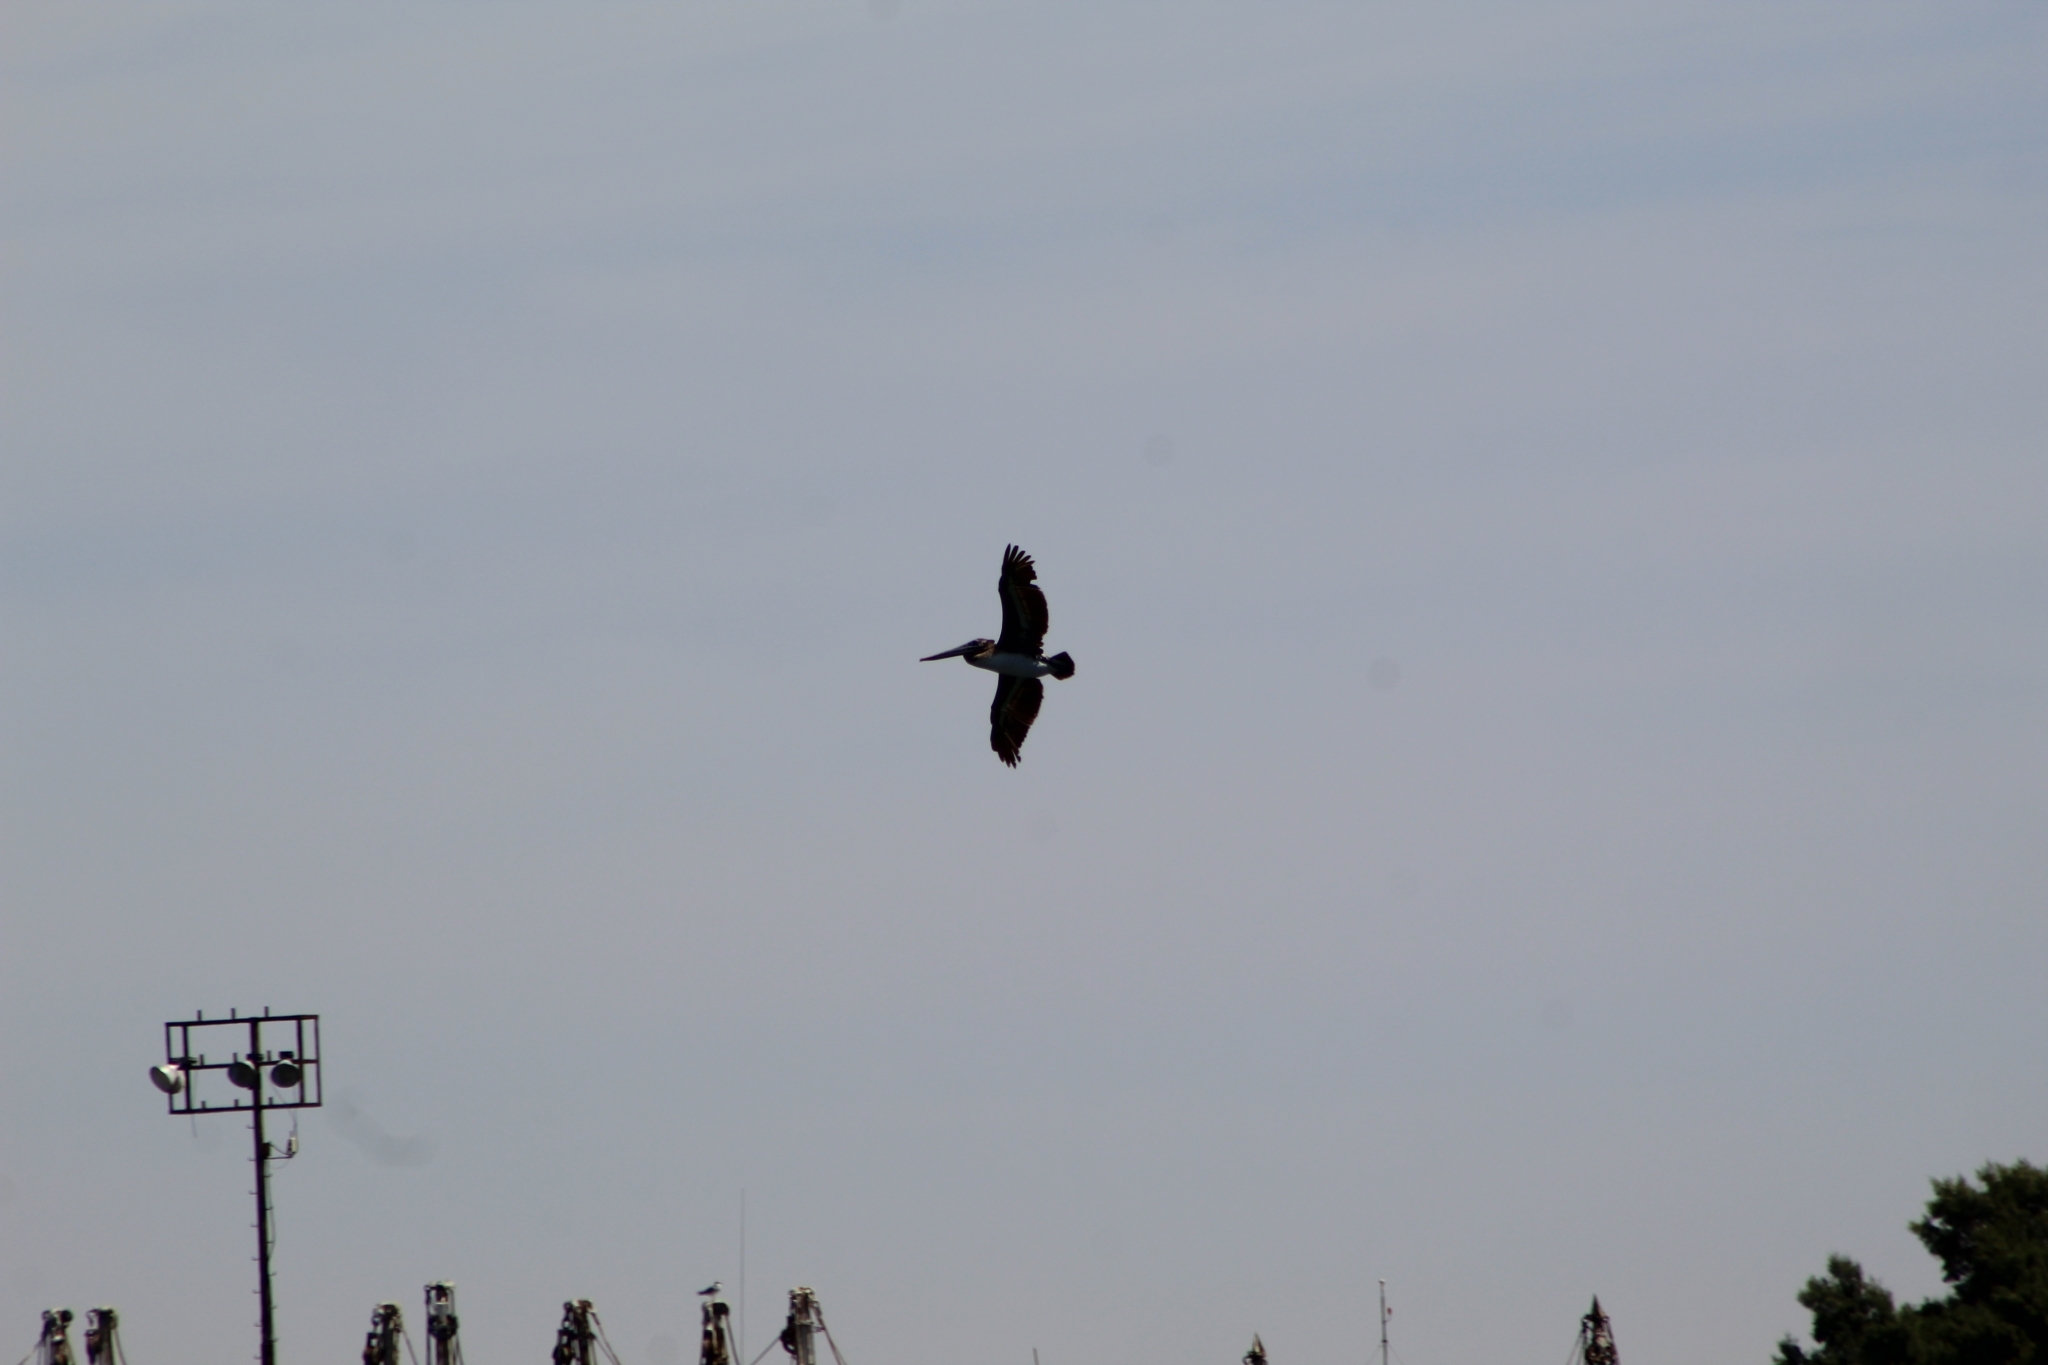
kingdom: Animalia
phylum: Chordata
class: Aves
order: Pelecaniformes
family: Pelecanidae
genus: Pelecanus
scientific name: Pelecanus occidentalis
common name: Brown pelican
